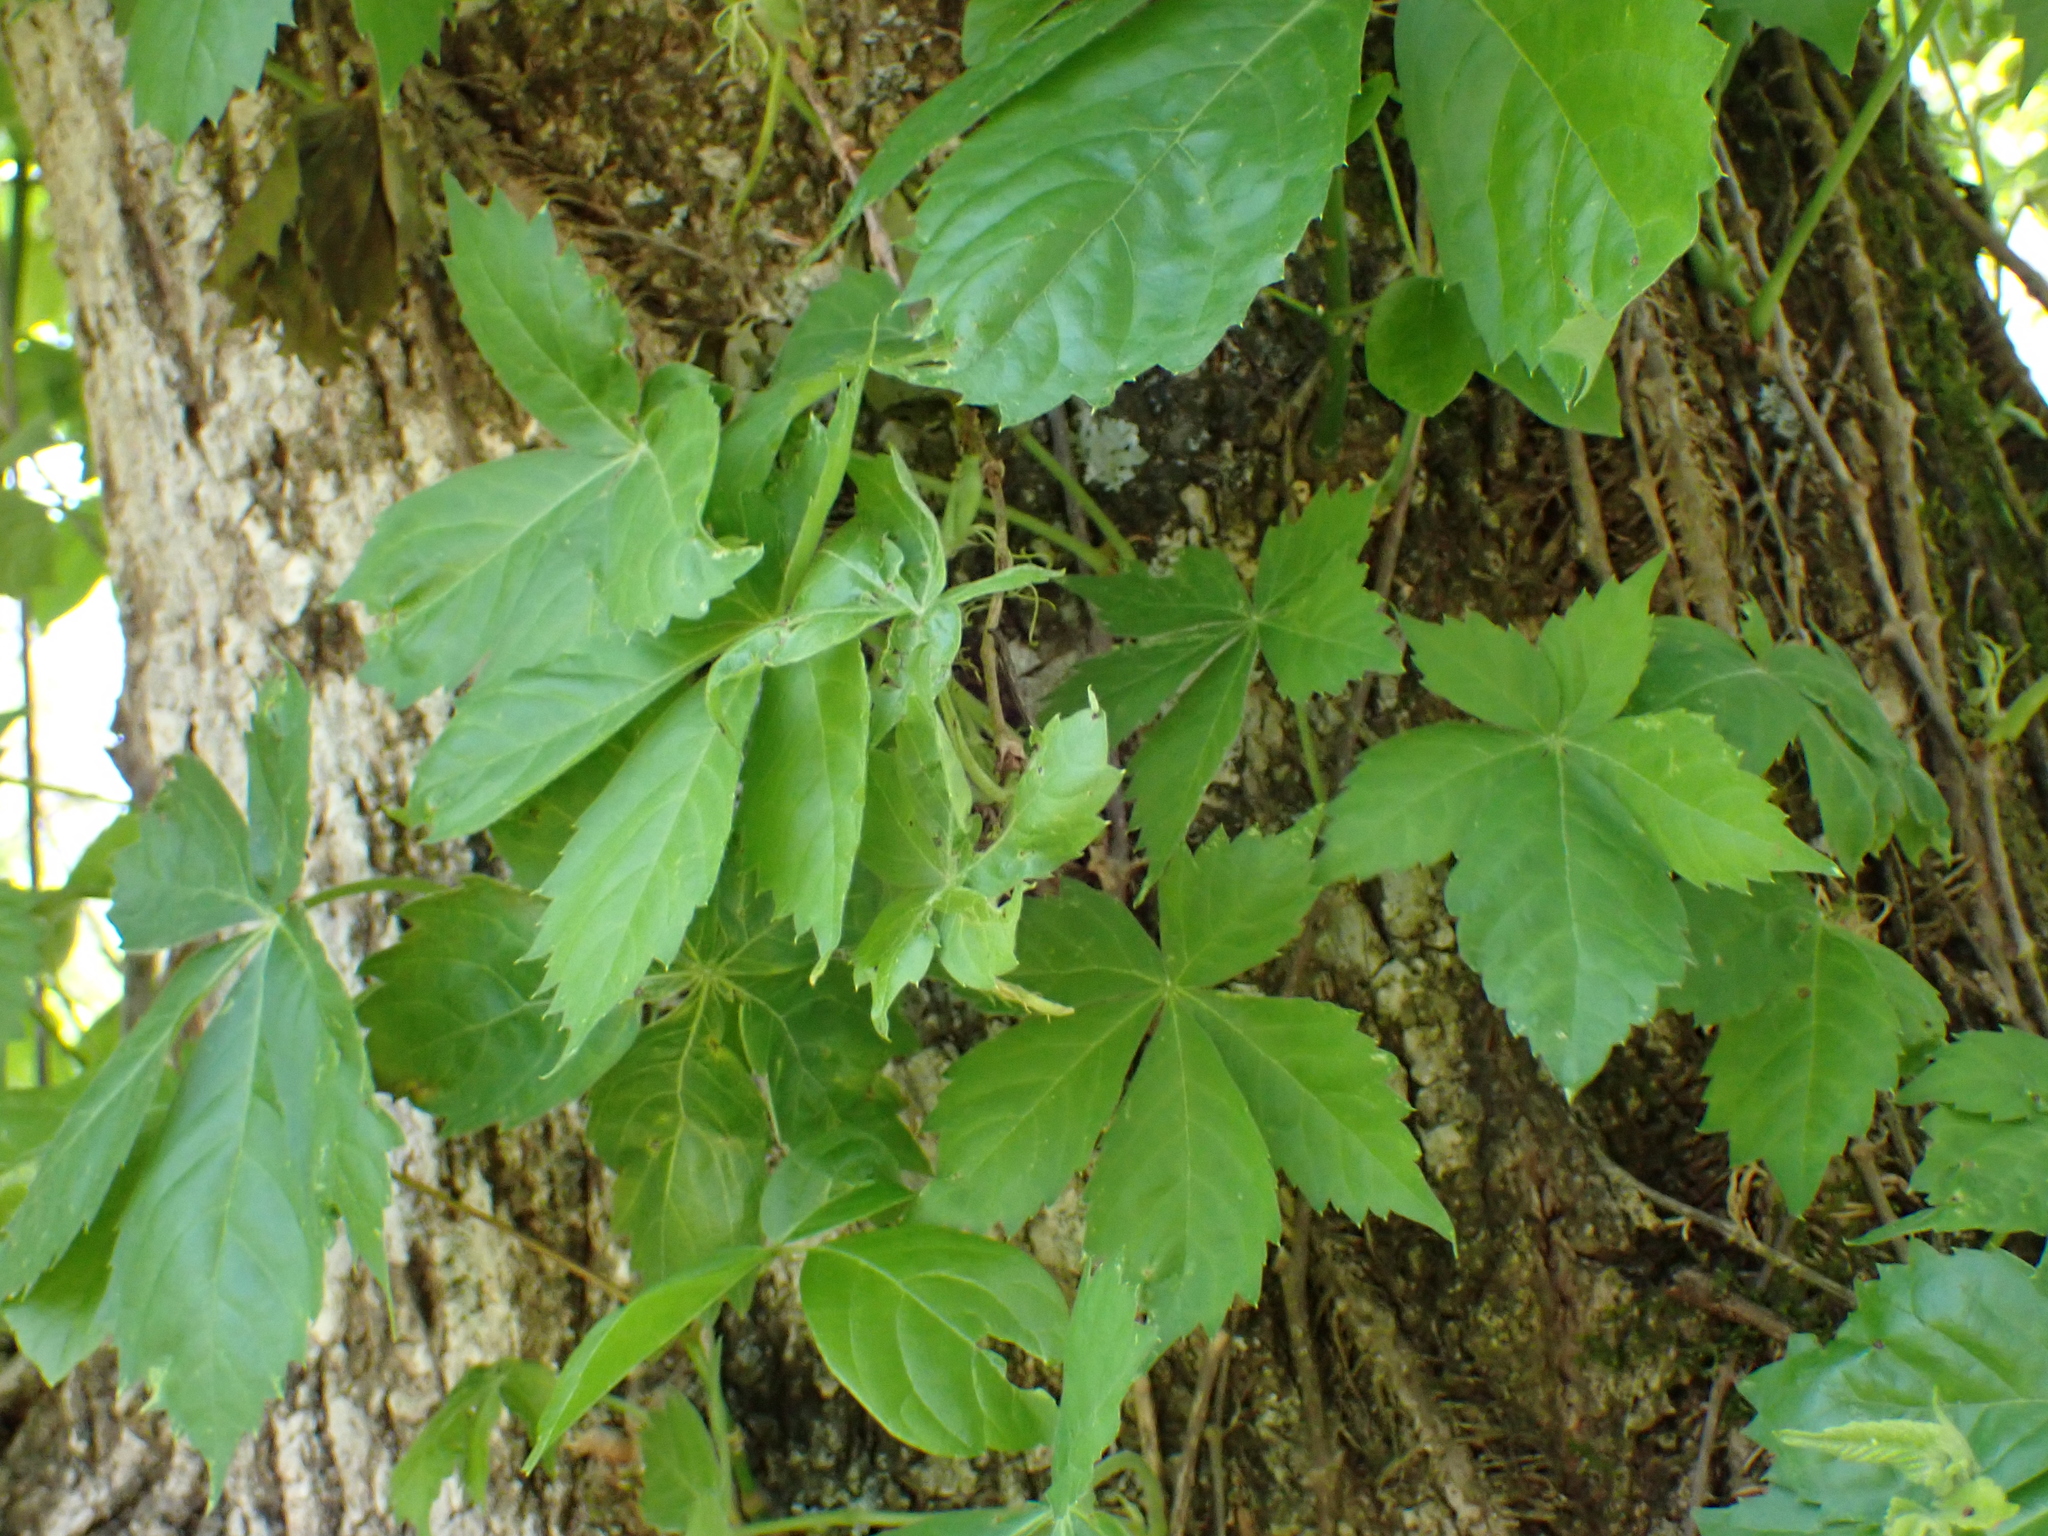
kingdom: Plantae
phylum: Tracheophyta
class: Magnoliopsida
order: Vitales
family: Vitaceae
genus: Parthenocissus
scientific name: Parthenocissus quinquefolia
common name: Virginia-creeper
